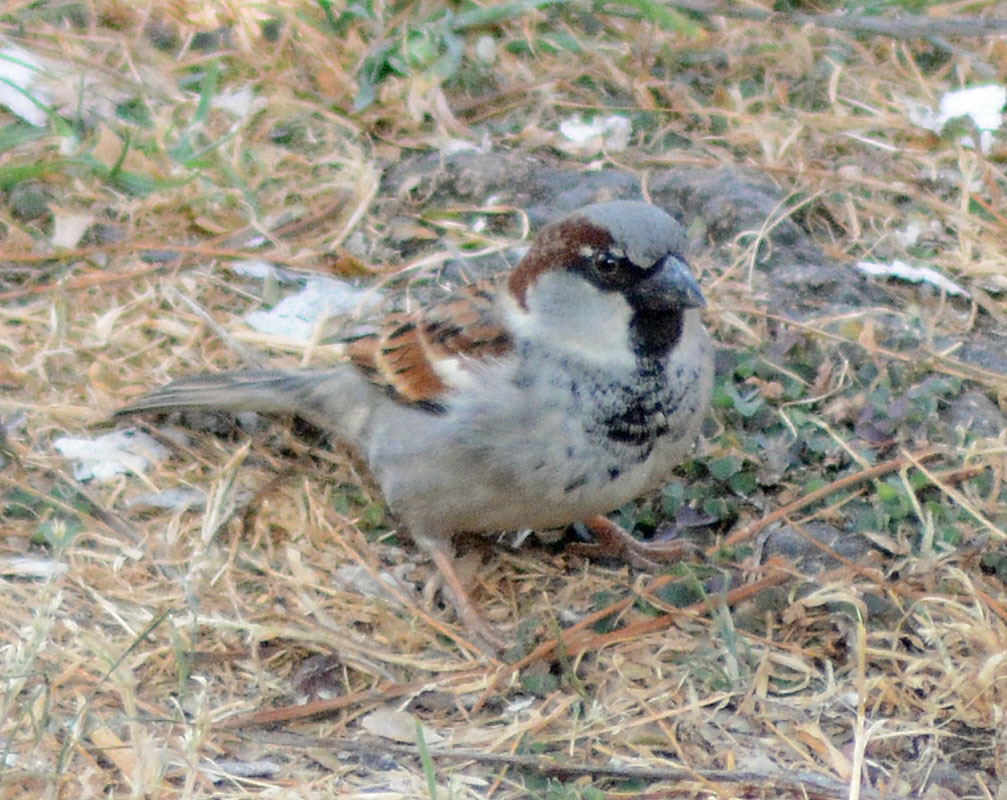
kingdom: Animalia
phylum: Chordata
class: Aves
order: Passeriformes
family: Passeridae
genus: Passer
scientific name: Passer domesticus
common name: House sparrow
